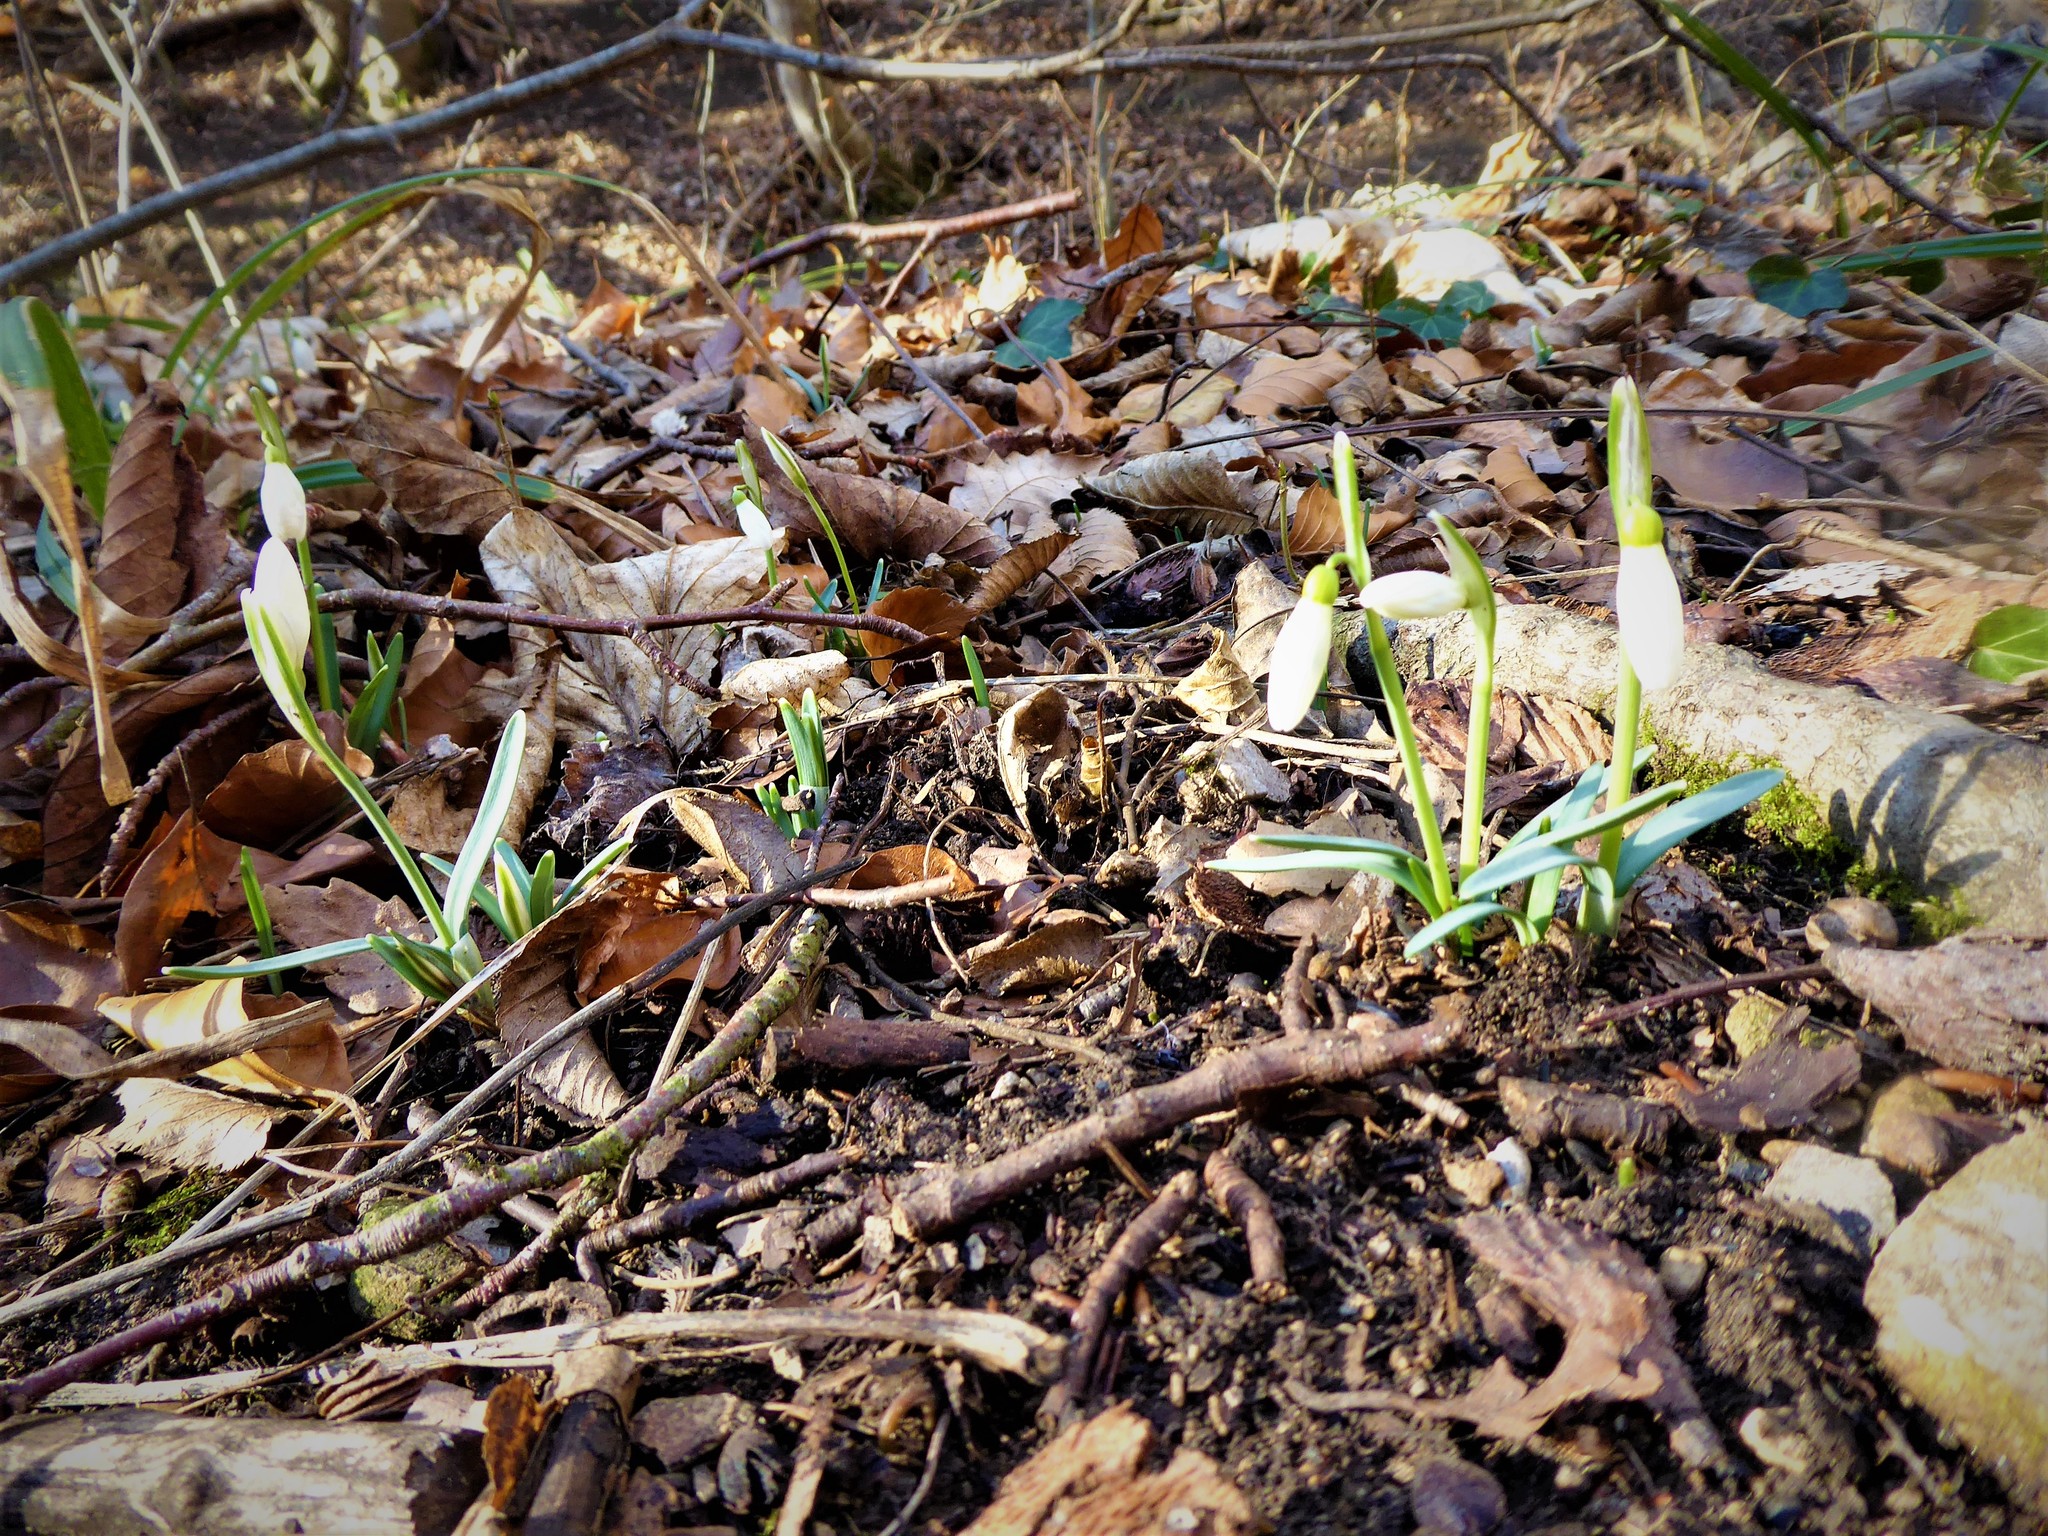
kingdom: Plantae
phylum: Tracheophyta
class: Liliopsida
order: Asparagales
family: Amaryllidaceae
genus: Galanthus
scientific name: Galanthus nivalis
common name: Snowdrop
